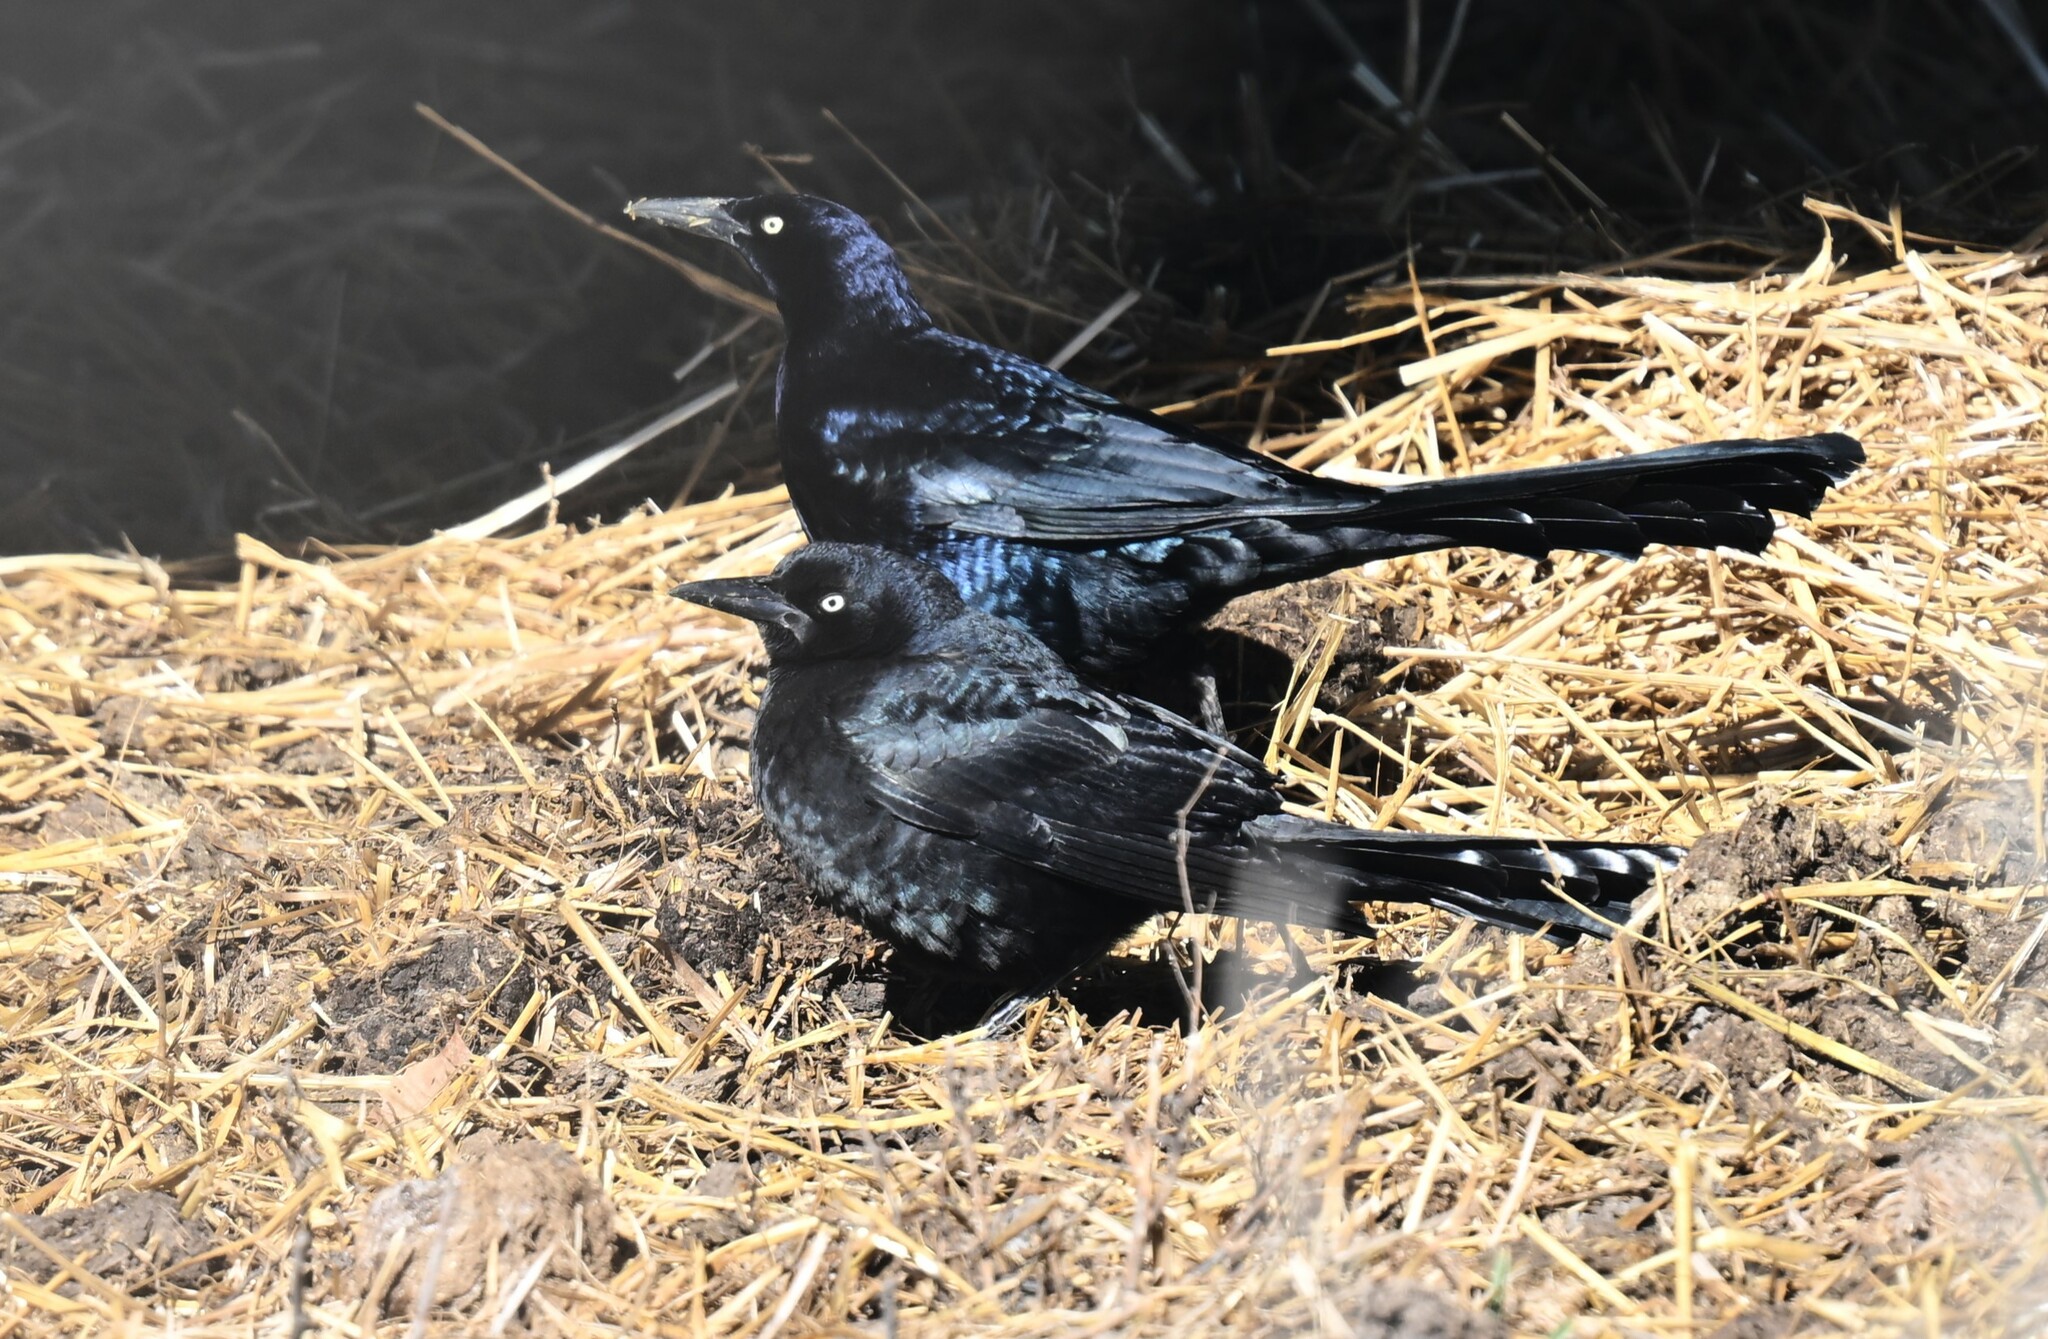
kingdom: Animalia
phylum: Chordata
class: Aves
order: Passeriformes
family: Icteridae
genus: Quiscalus
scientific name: Quiscalus mexicanus
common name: Great-tailed grackle
